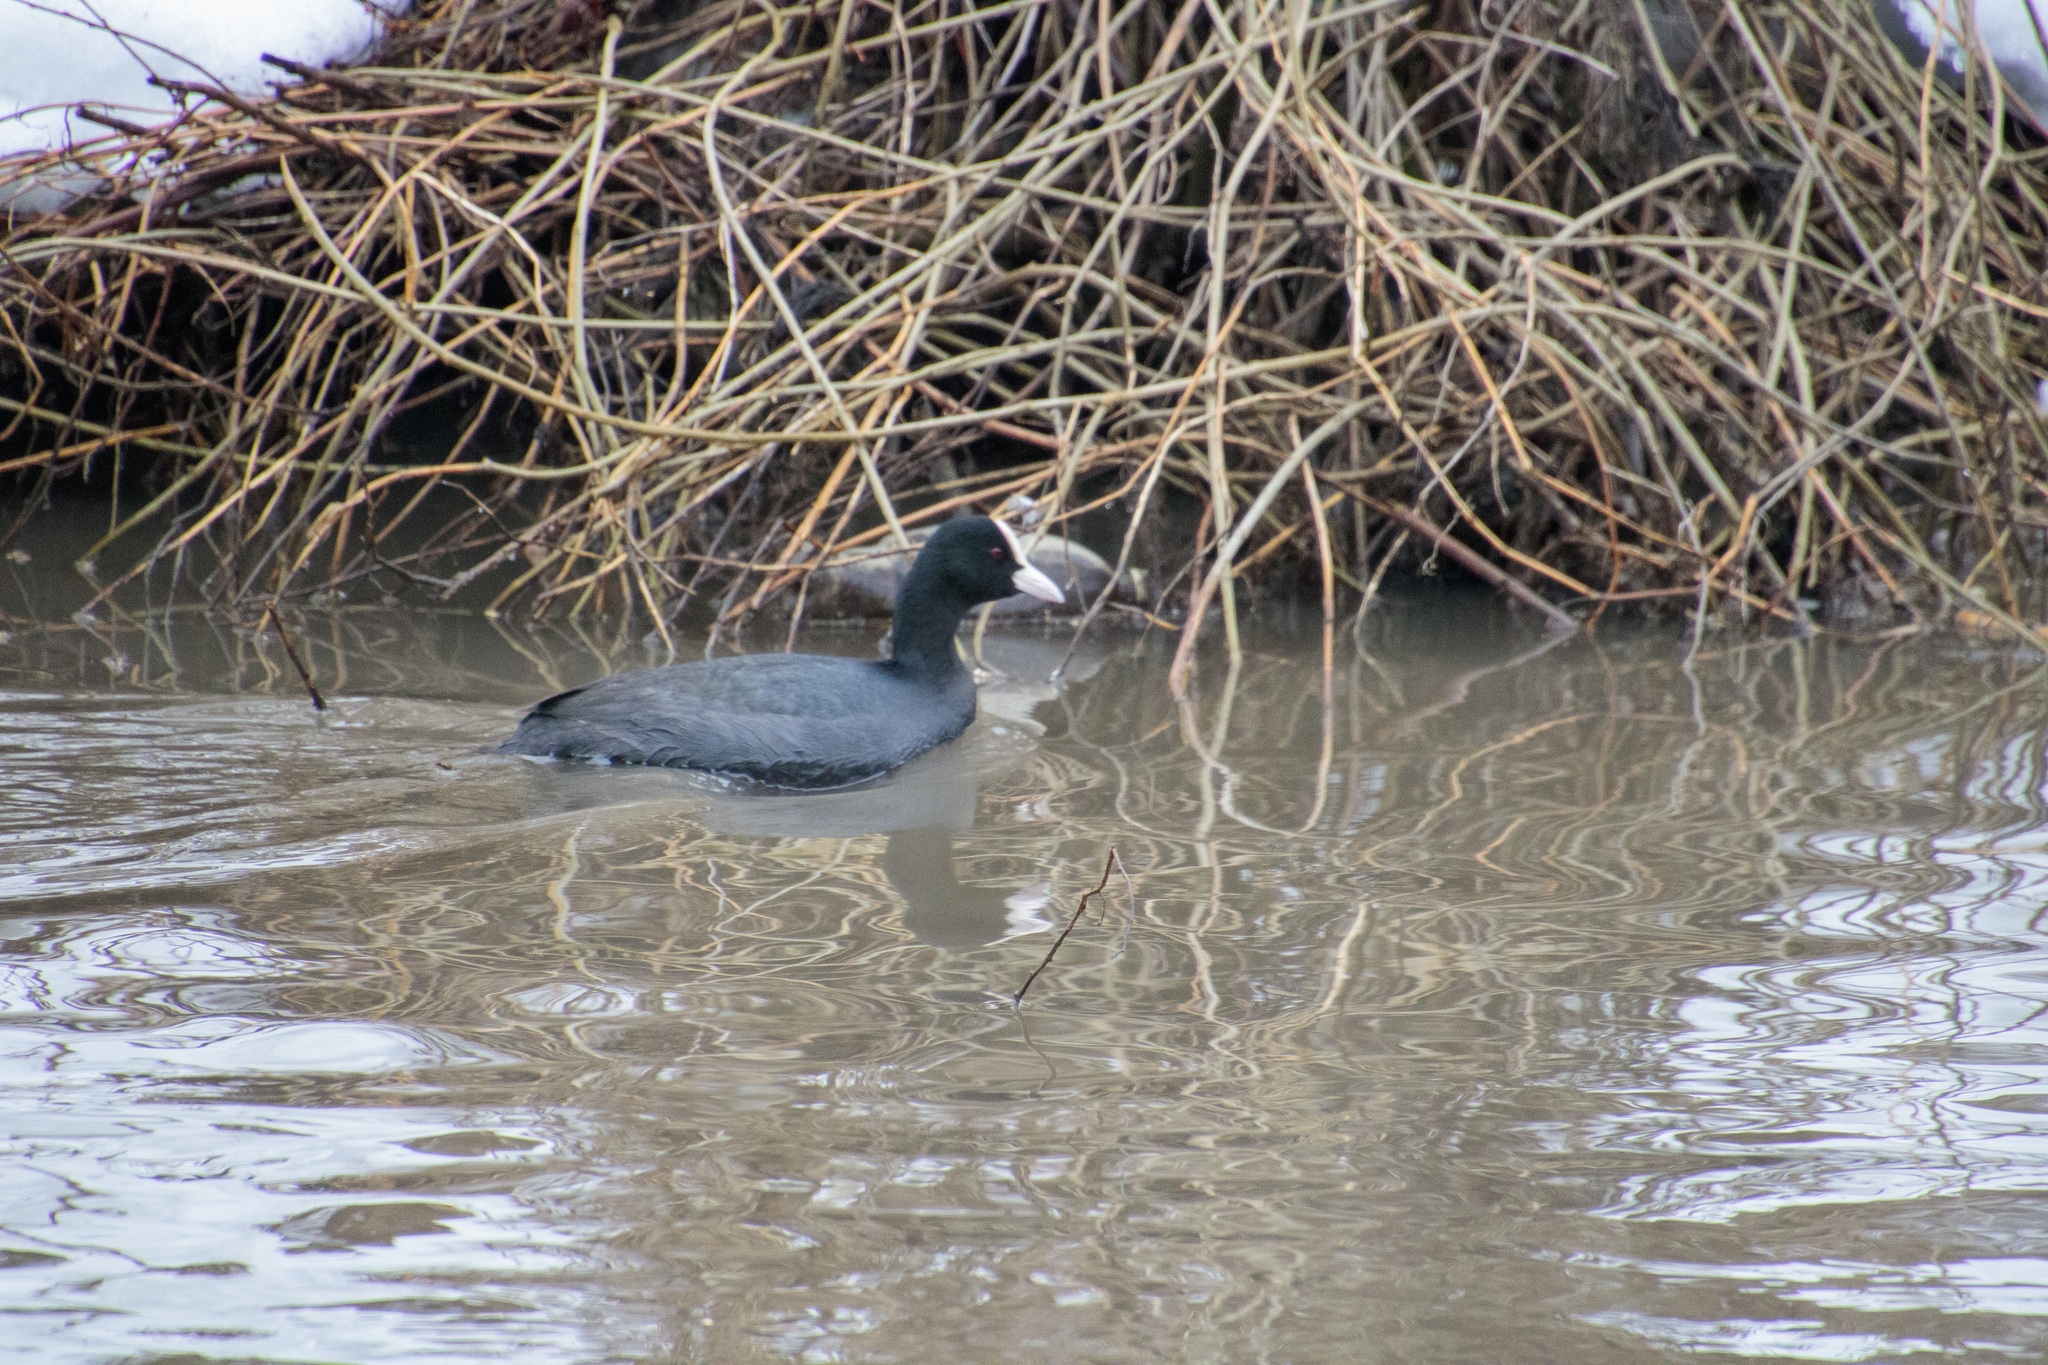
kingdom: Animalia
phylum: Chordata
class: Aves
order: Gruiformes
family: Rallidae
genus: Fulica
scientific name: Fulica atra
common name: Eurasian coot
